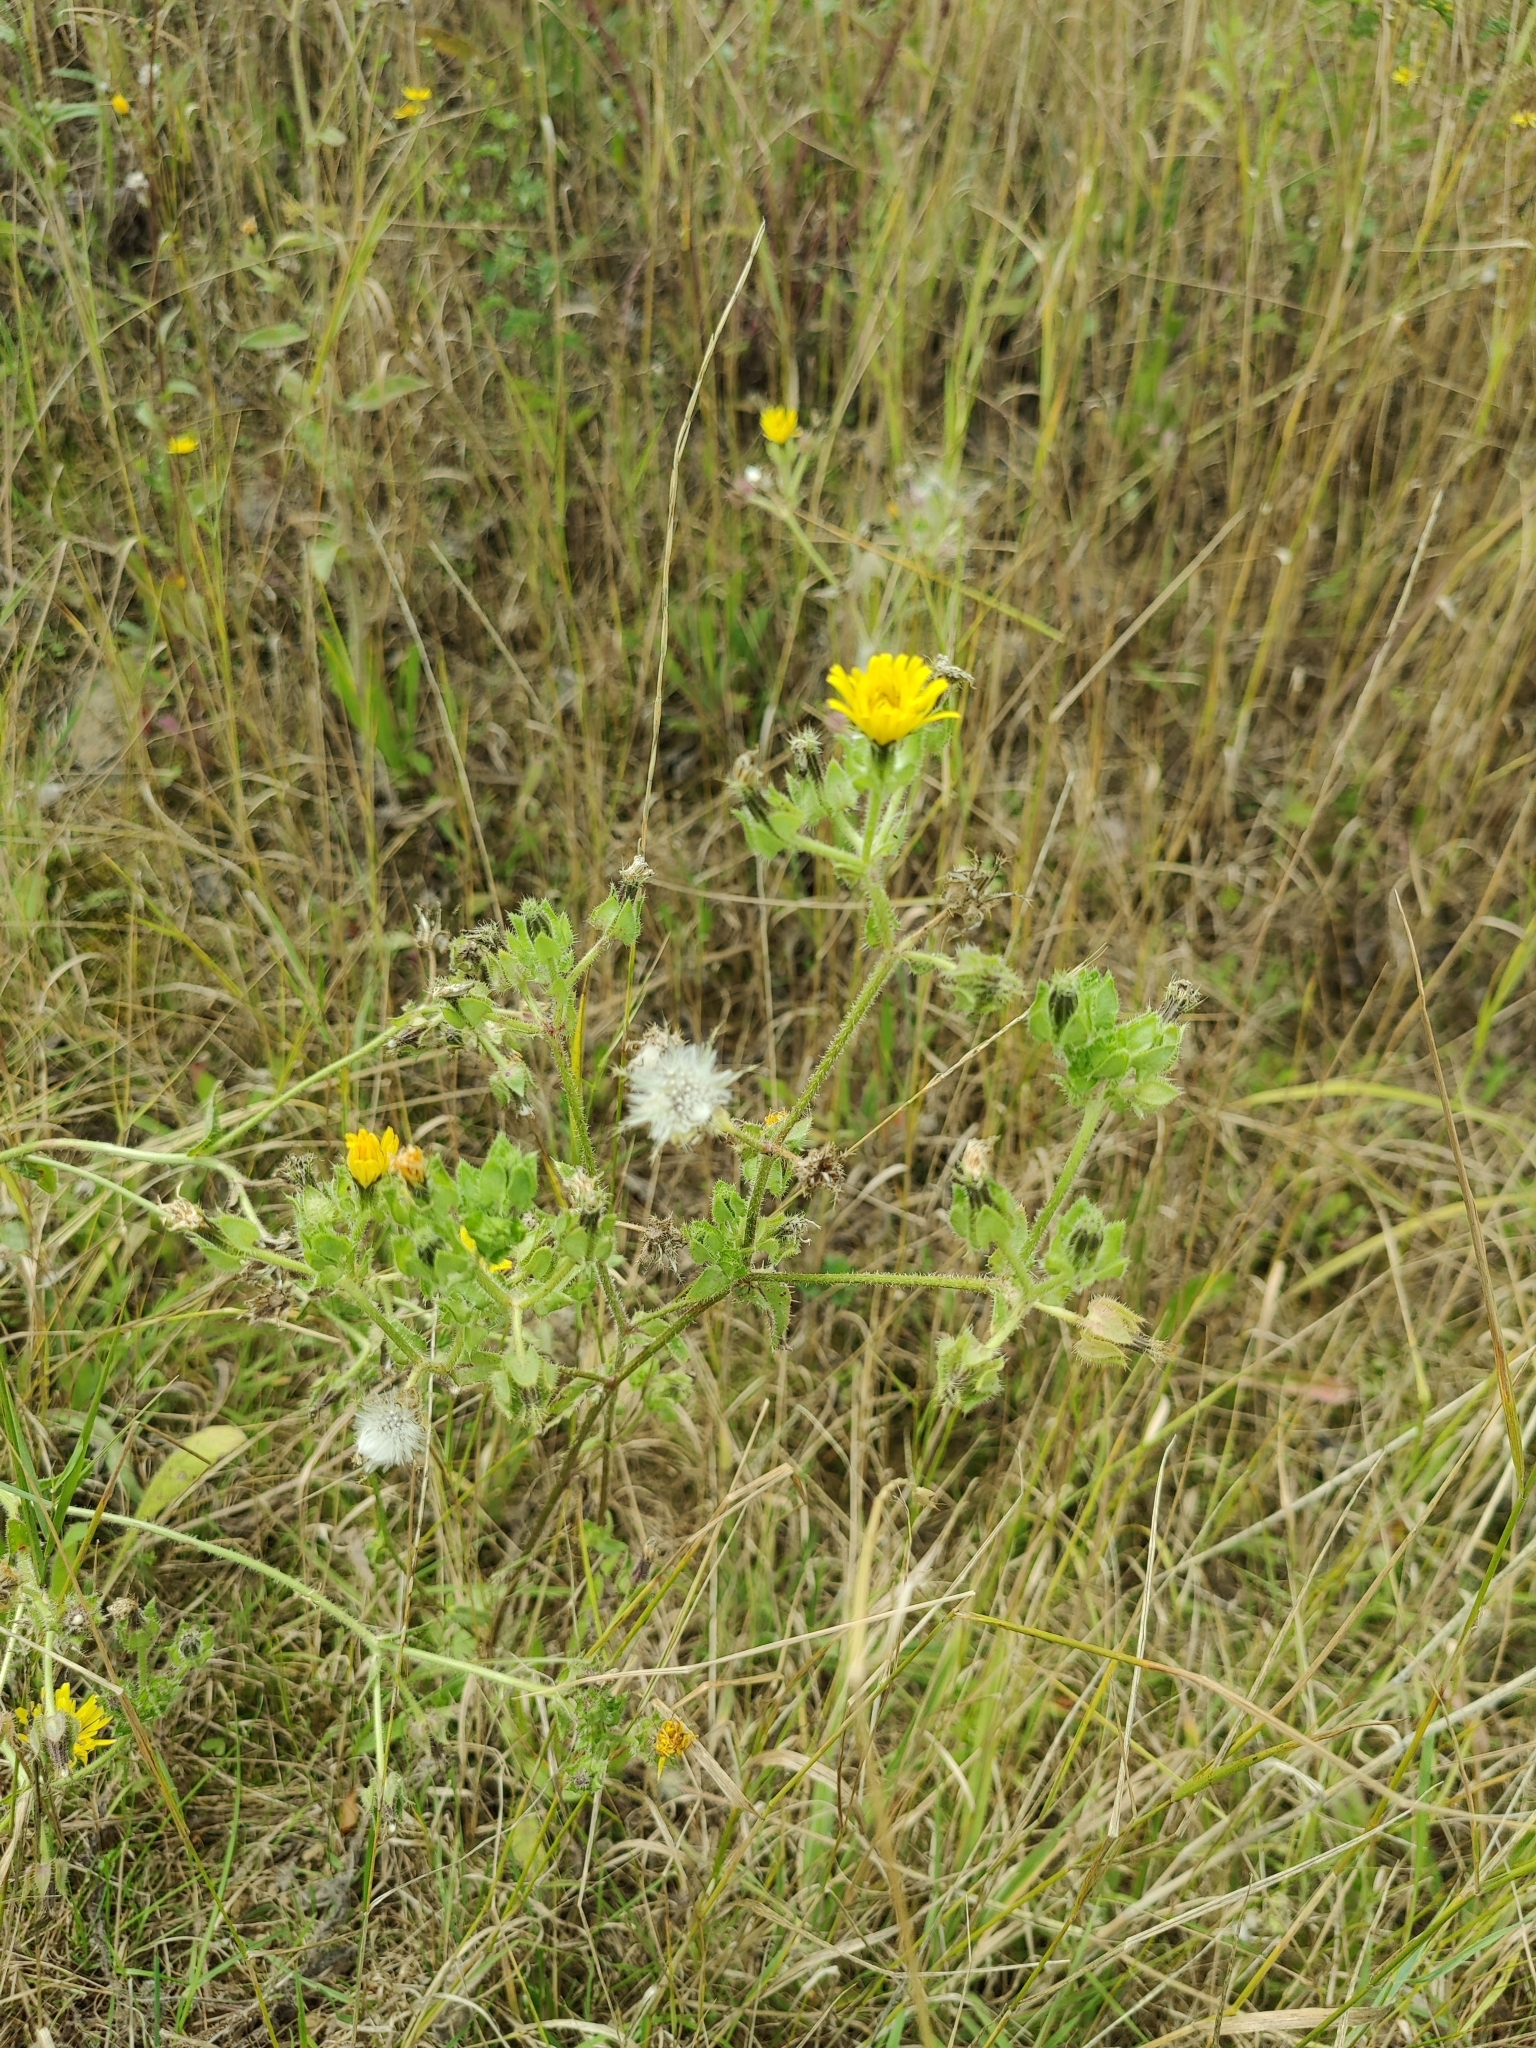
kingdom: Plantae
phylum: Tracheophyta
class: Magnoliopsida
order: Asterales
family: Asteraceae
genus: Picris
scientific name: Picris hieracioides
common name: Hawkweed oxtongue
